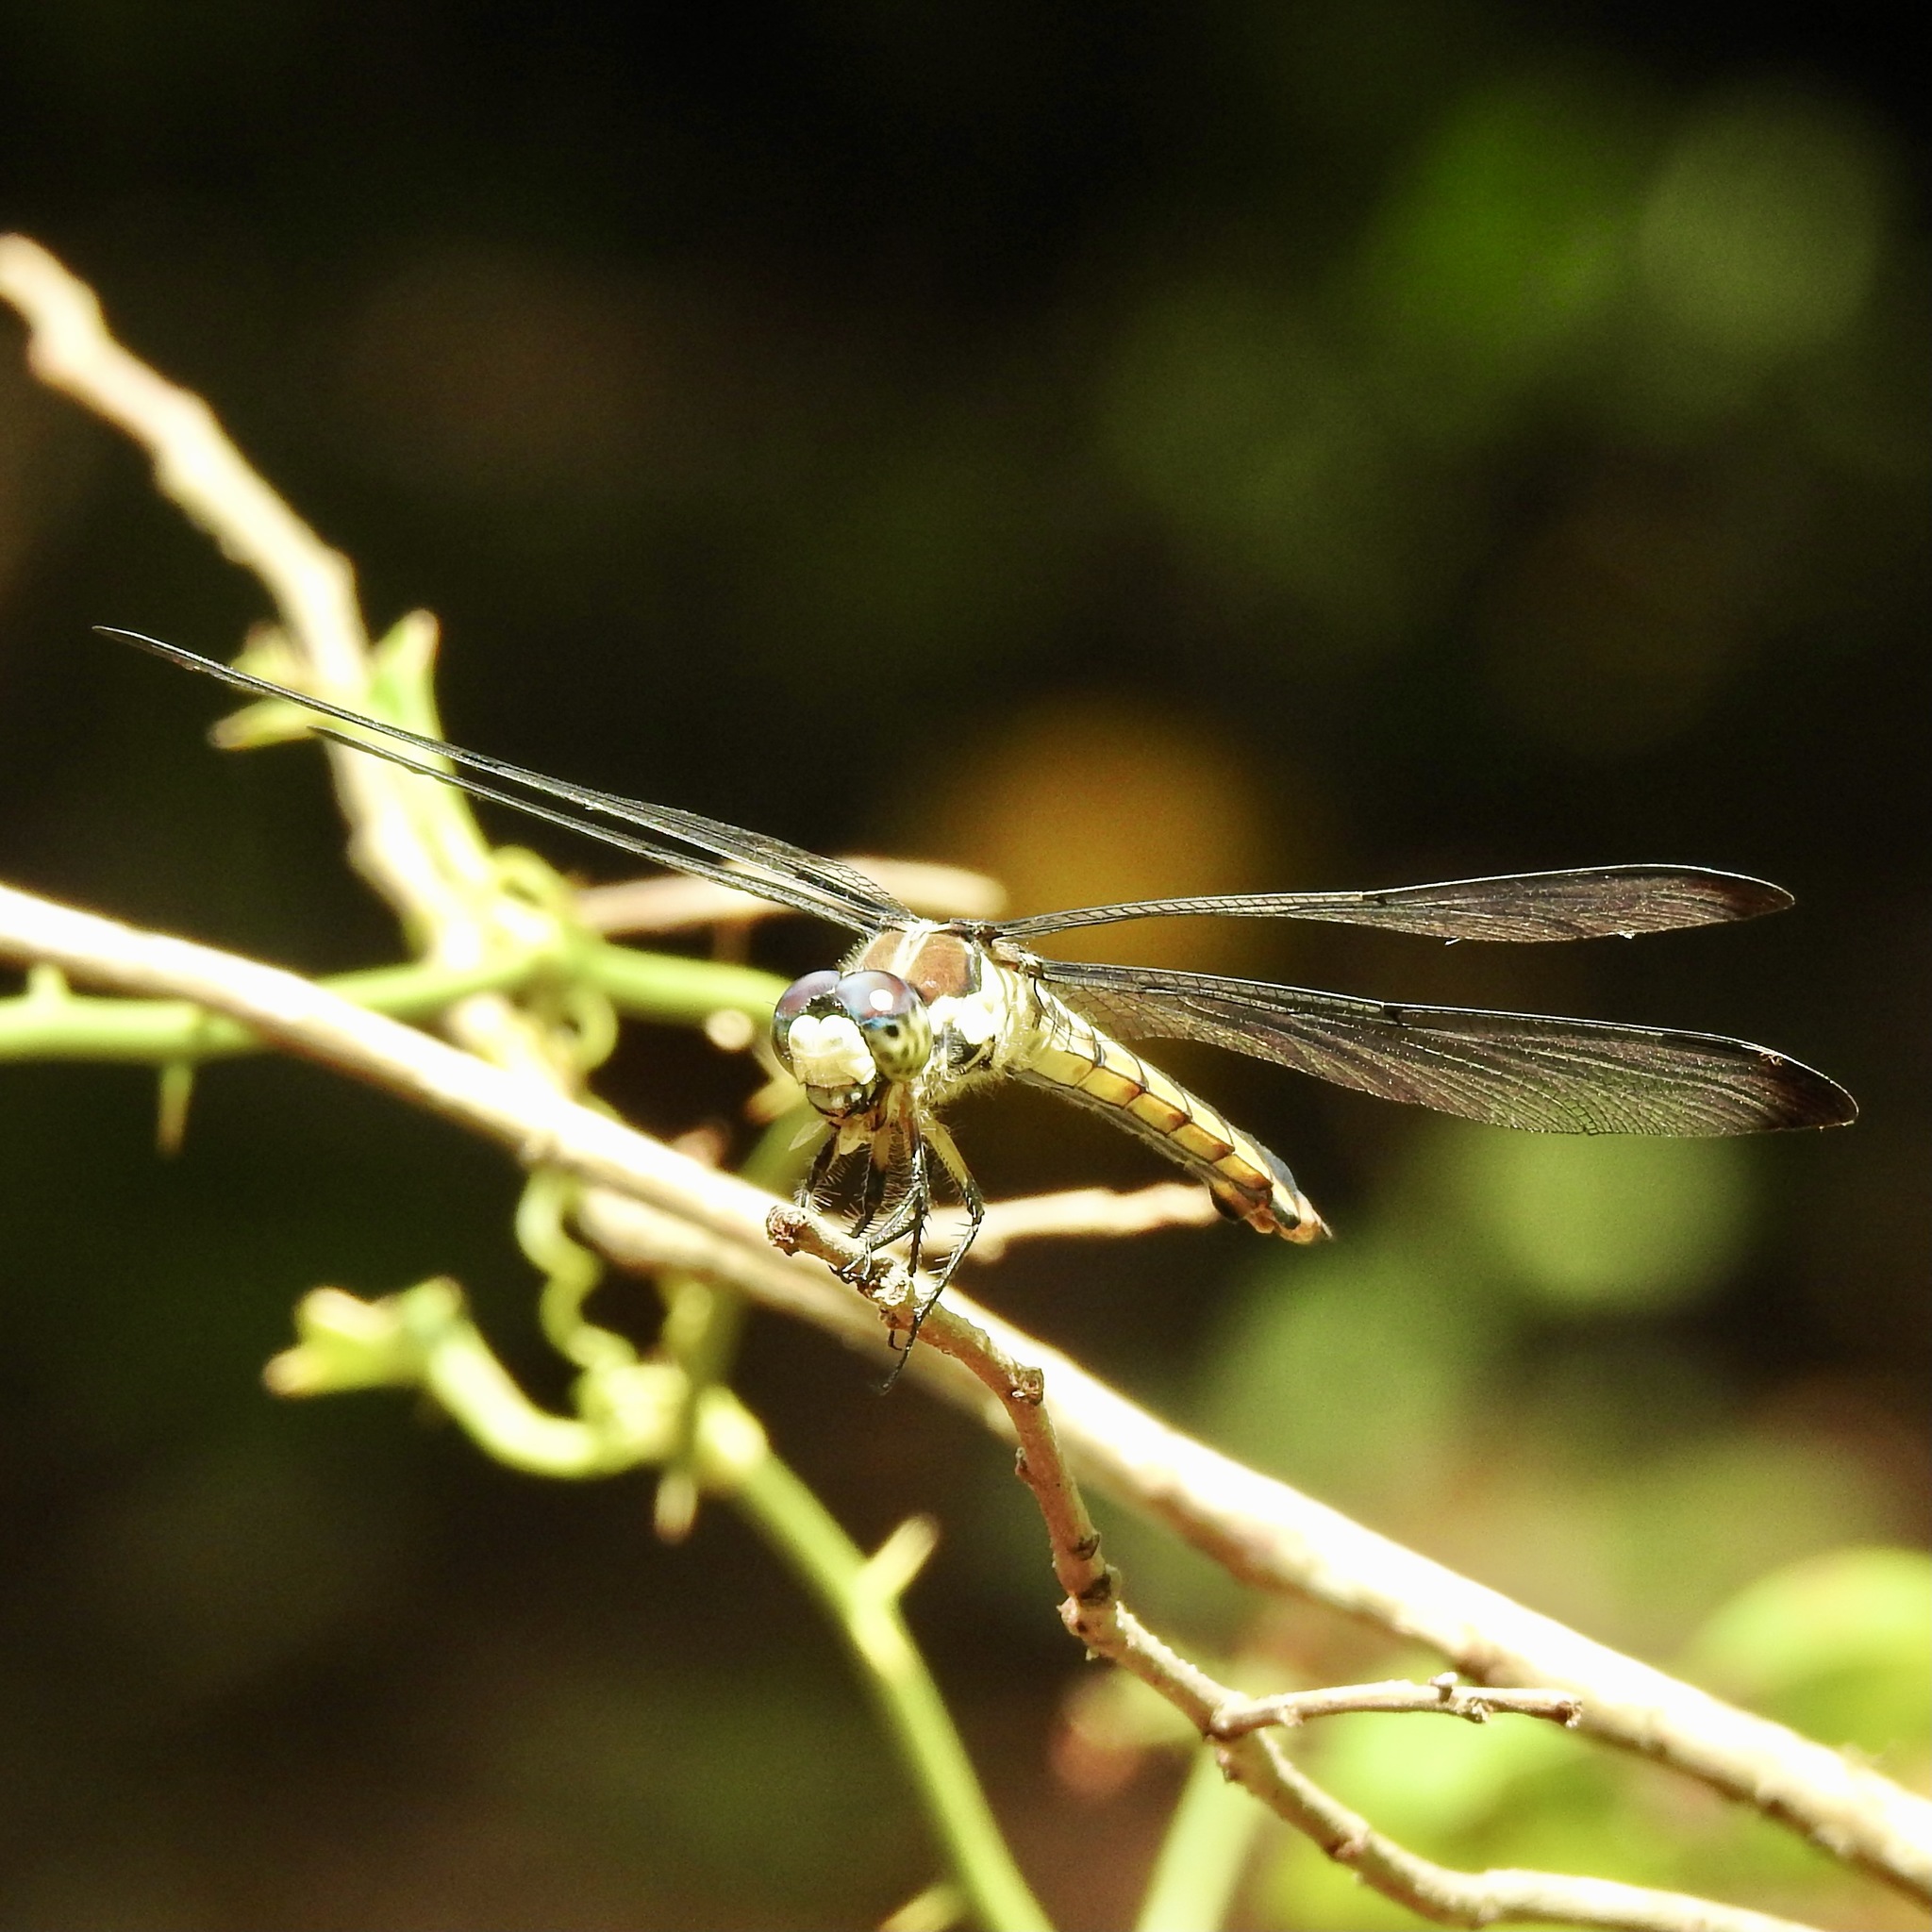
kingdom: Animalia
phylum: Arthropoda
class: Insecta
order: Odonata
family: Libellulidae
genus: Libellula
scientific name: Libellula vibrans
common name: Great blue skimmer
